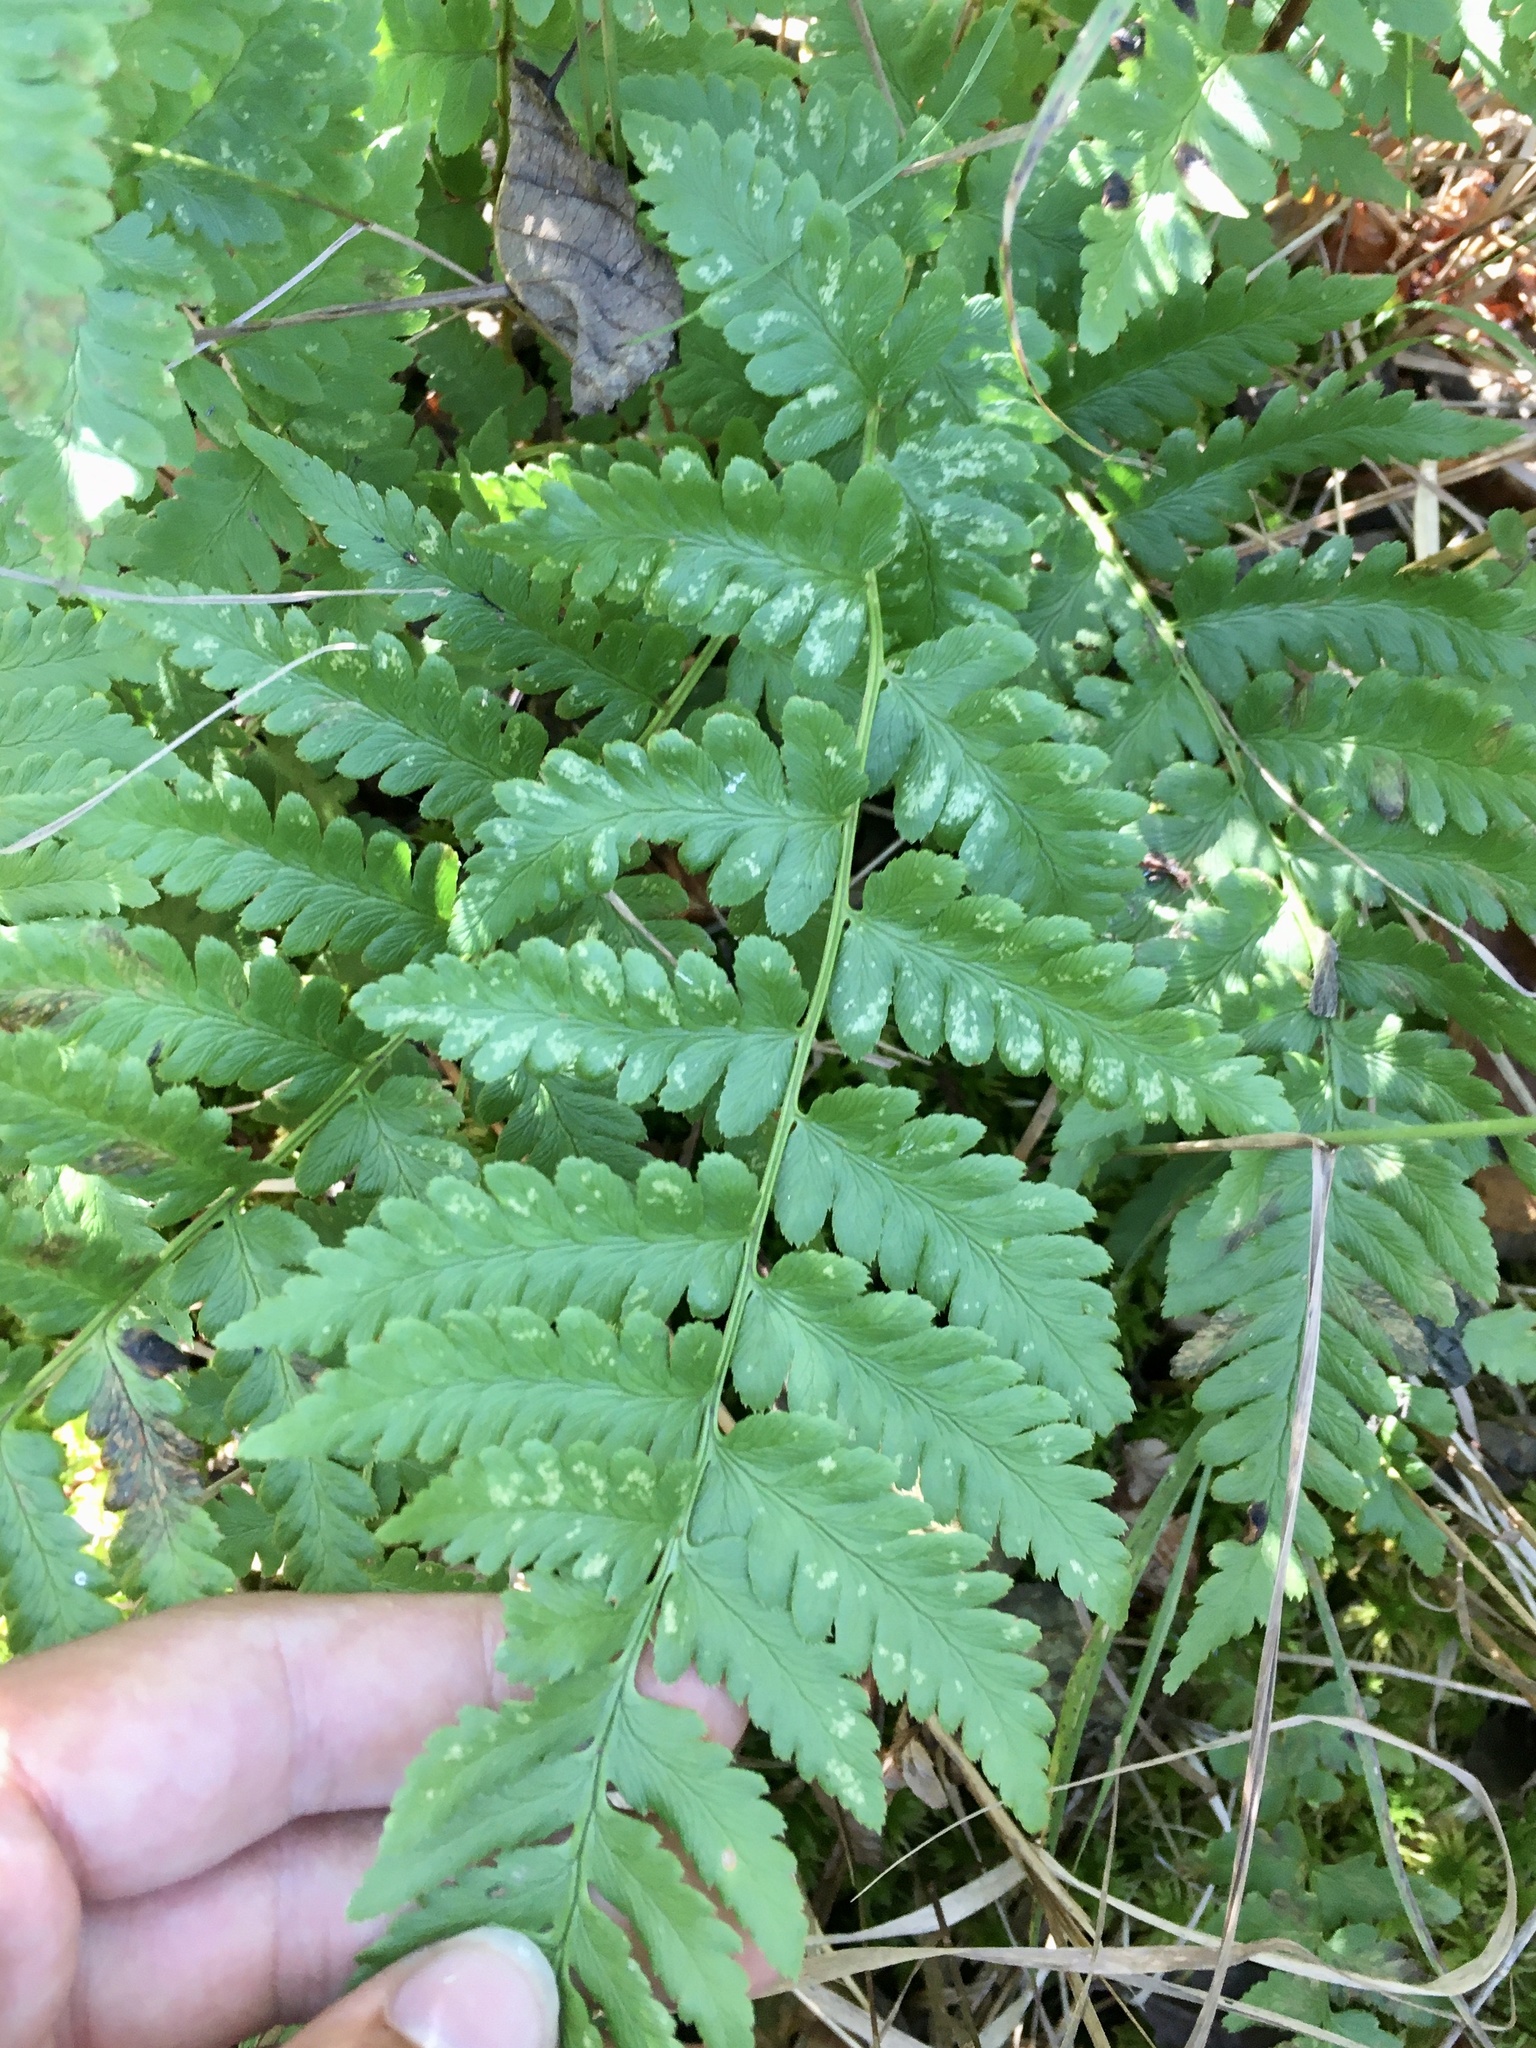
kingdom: Plantae
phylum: Tracheophyta
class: Polypodiopsida
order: Polypodiales
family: Dryopteridaceae
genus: Dryopteris
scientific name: Dryopteris cristata
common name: Crested wood fern
